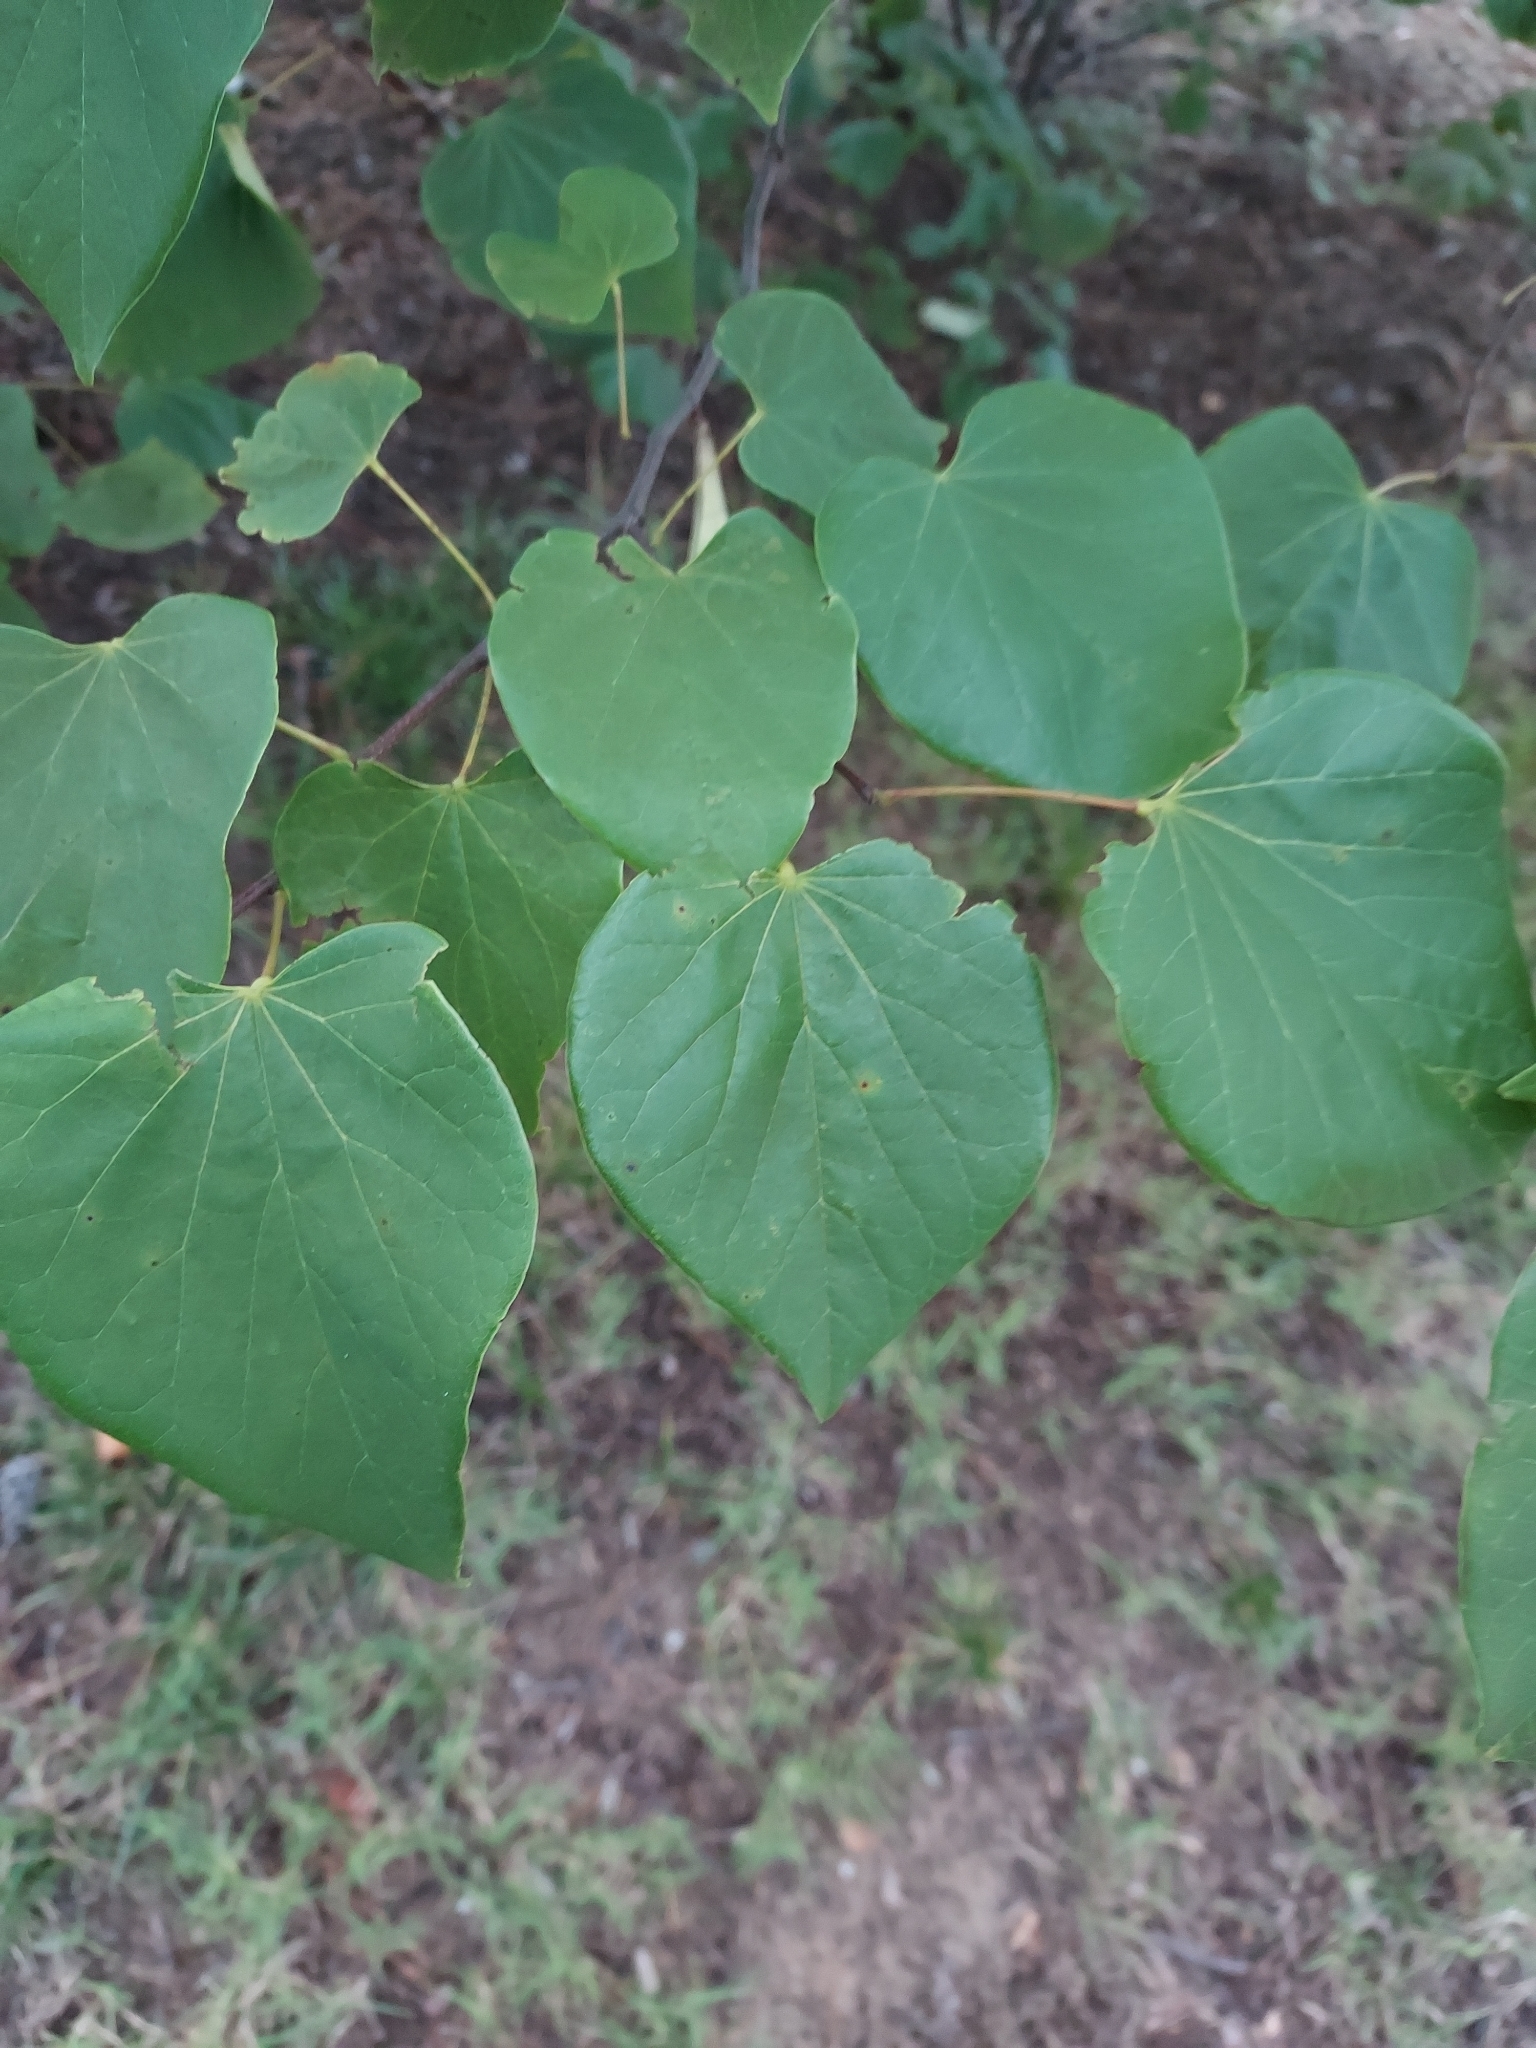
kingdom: Plantae
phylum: Tracheophyta
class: Magnoliopsida
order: Fabales
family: Fabaceae
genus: Cercis
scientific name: Cercis canadensis
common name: Eastern redbud
